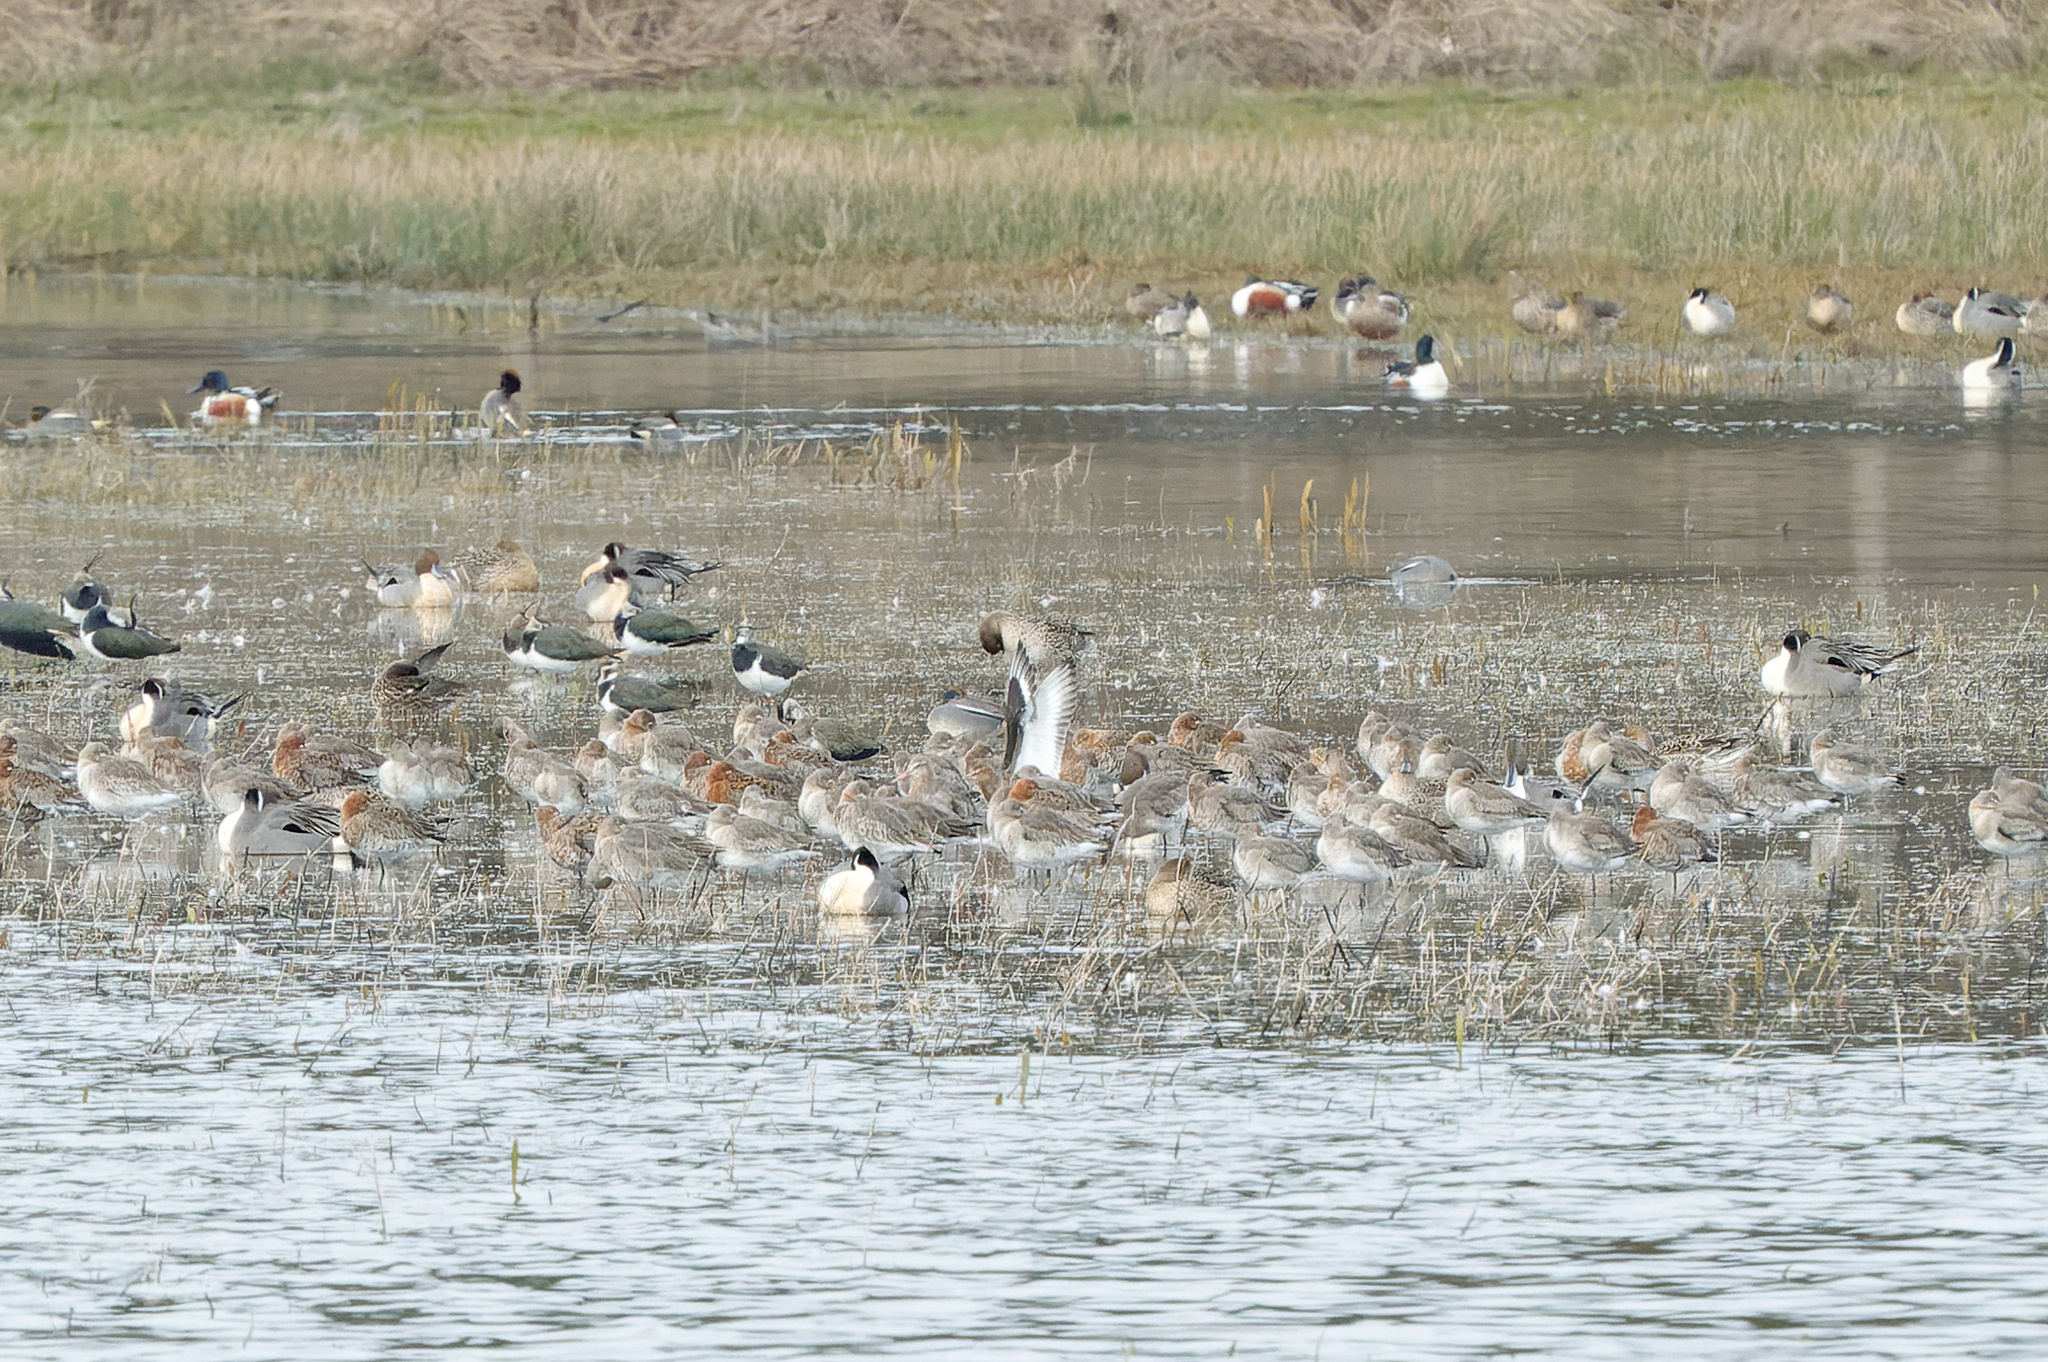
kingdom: Animalia
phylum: Chordata
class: Aves
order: Charadriiformes
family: Scolopacidae
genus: Limosa
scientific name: Limosa limosa
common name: Black-tailed godwit
